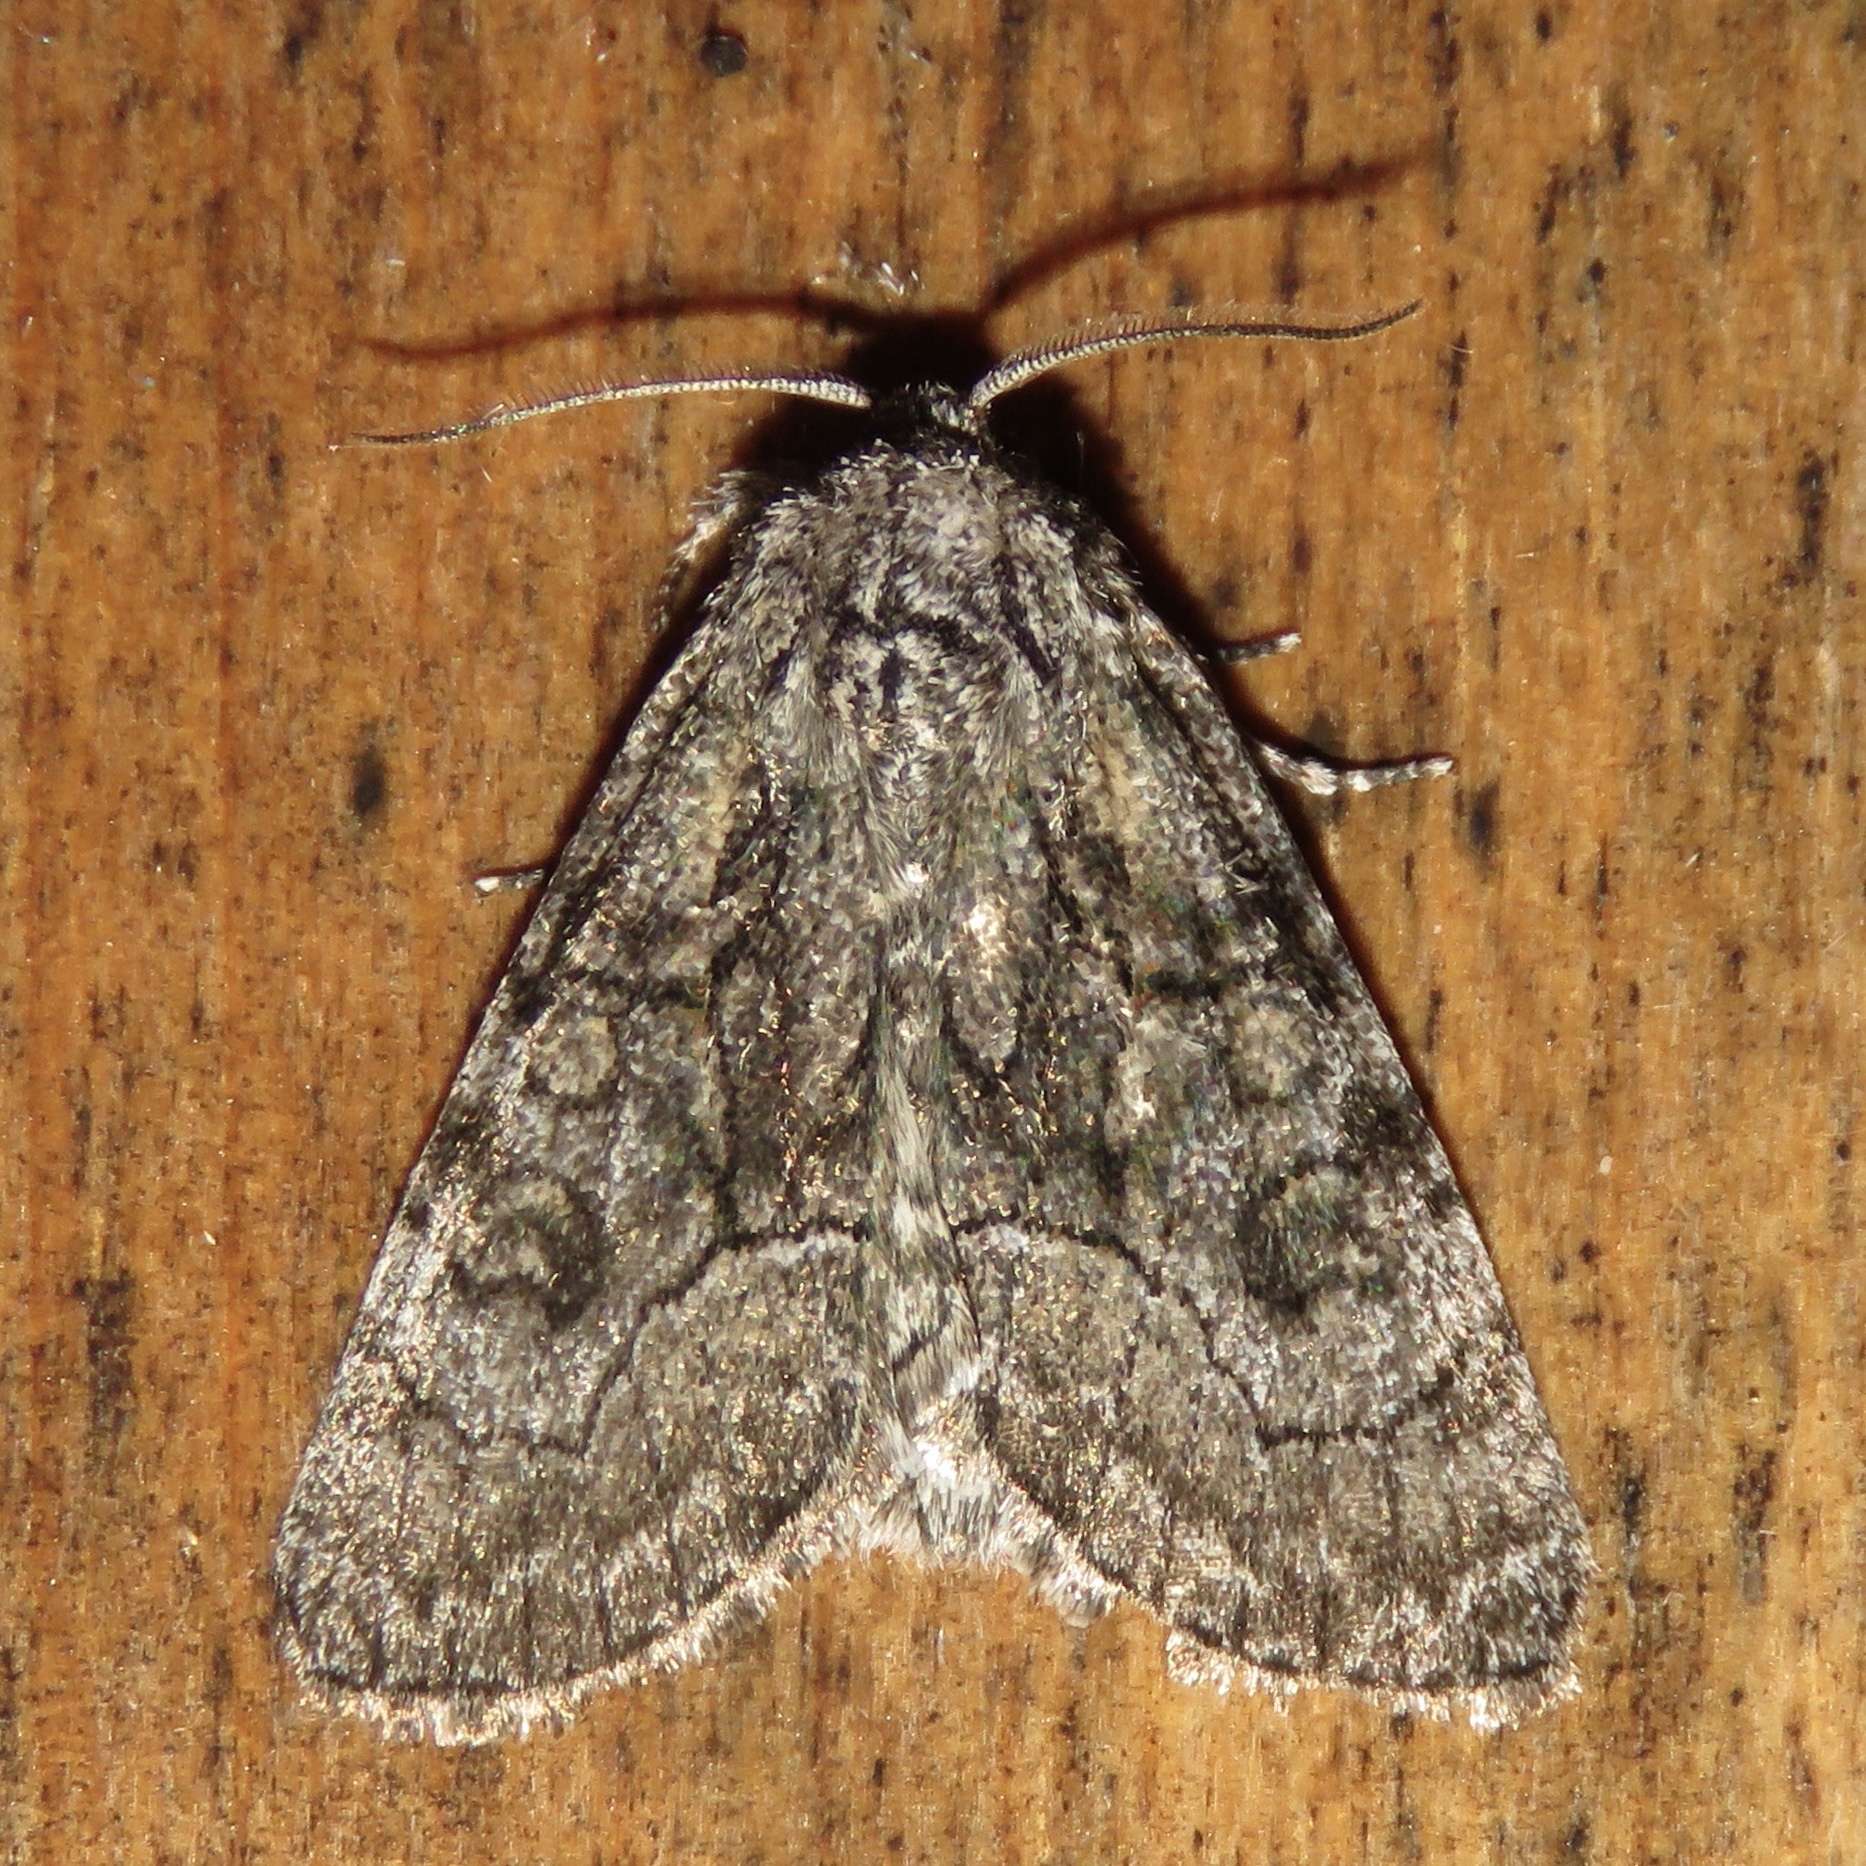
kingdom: Animalia
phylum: Arthropoda
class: Insecta
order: Lepidoptera
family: Noctuidae
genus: Raphia
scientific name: Raphia frater
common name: Brother
